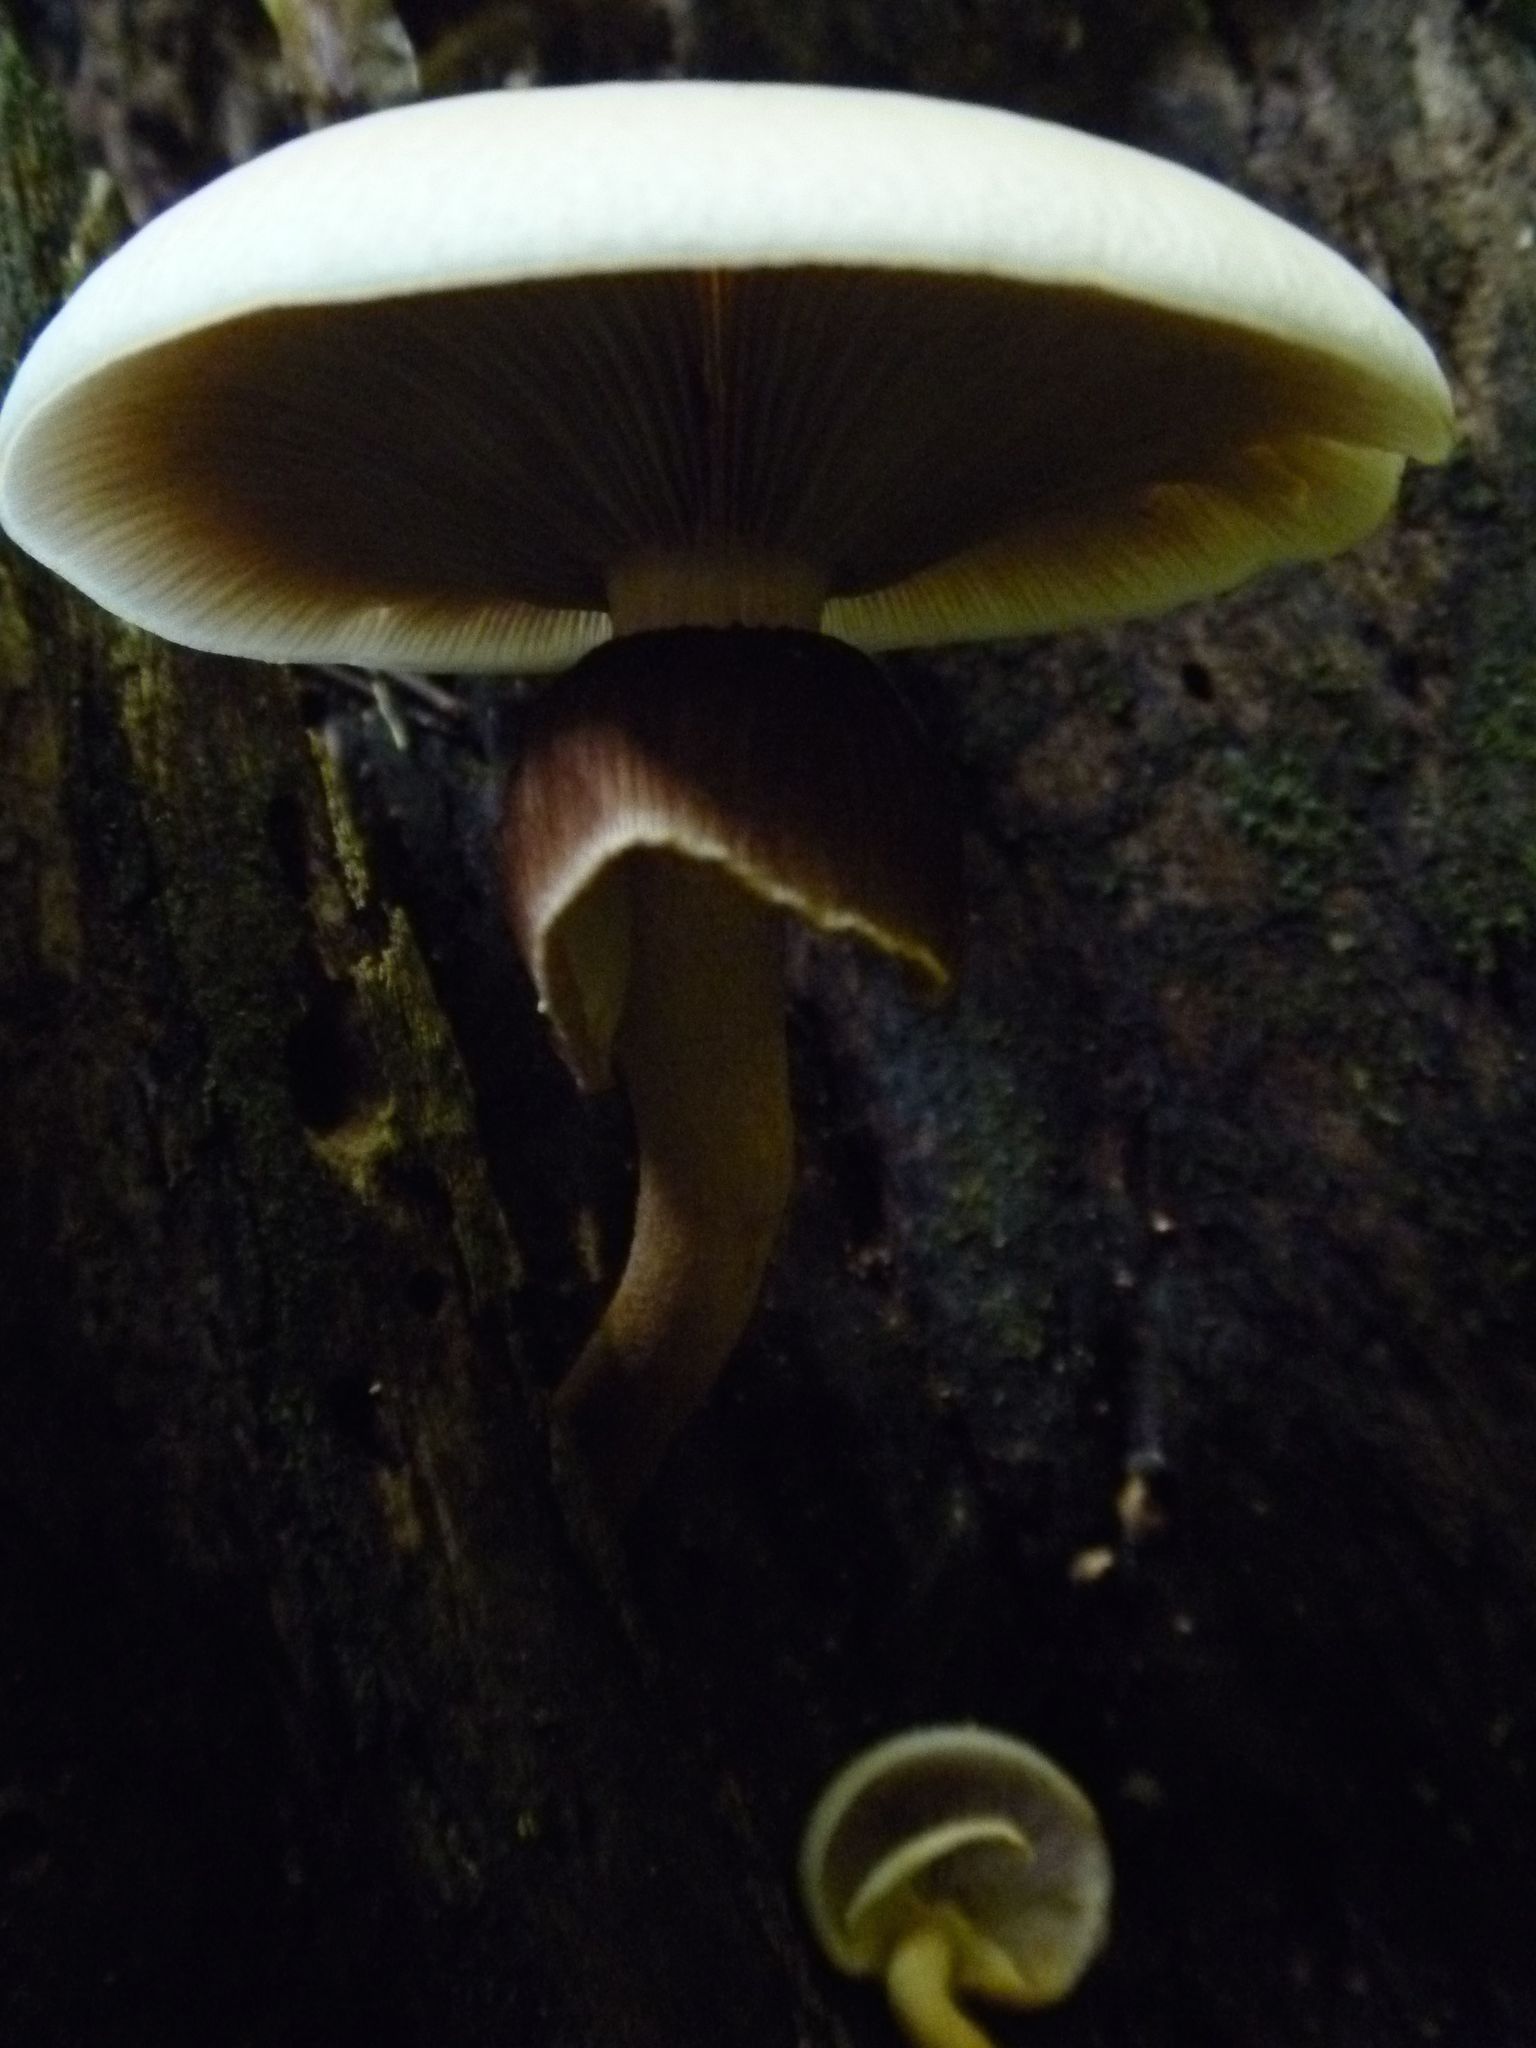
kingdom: Fungi
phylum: Basidiomycota
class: Agaricomycetes
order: Agaricales
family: Tubariaceae
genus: Cyclocybe
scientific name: Cyclocybe parasitica
